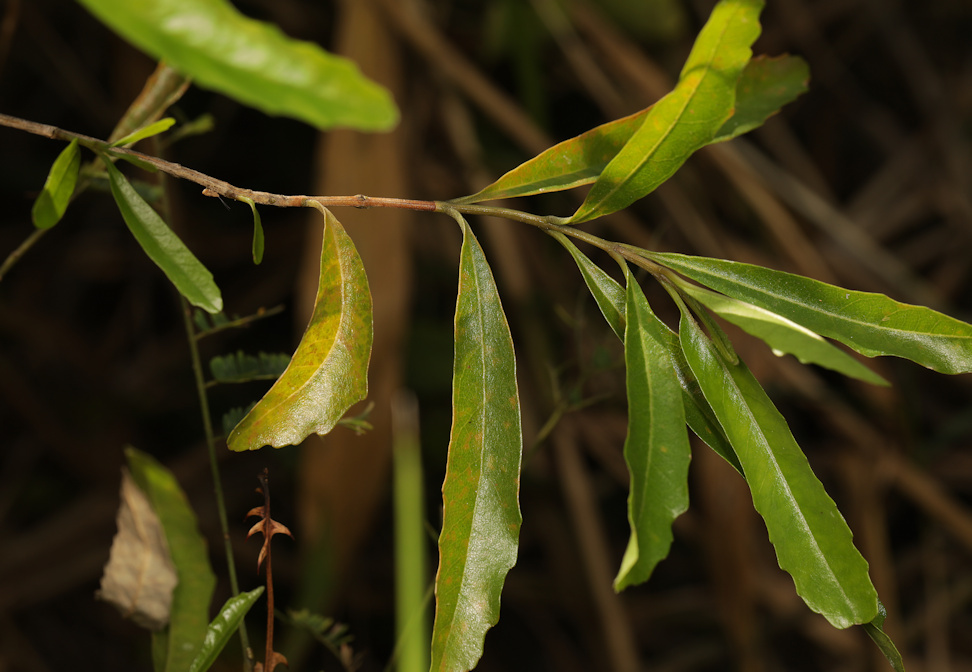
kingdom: Plantae
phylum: Tracheophyta
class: Magnoliopsida
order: Lamiales
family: Stilbaceae
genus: Nuxia
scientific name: Nuxia oppositifolia
